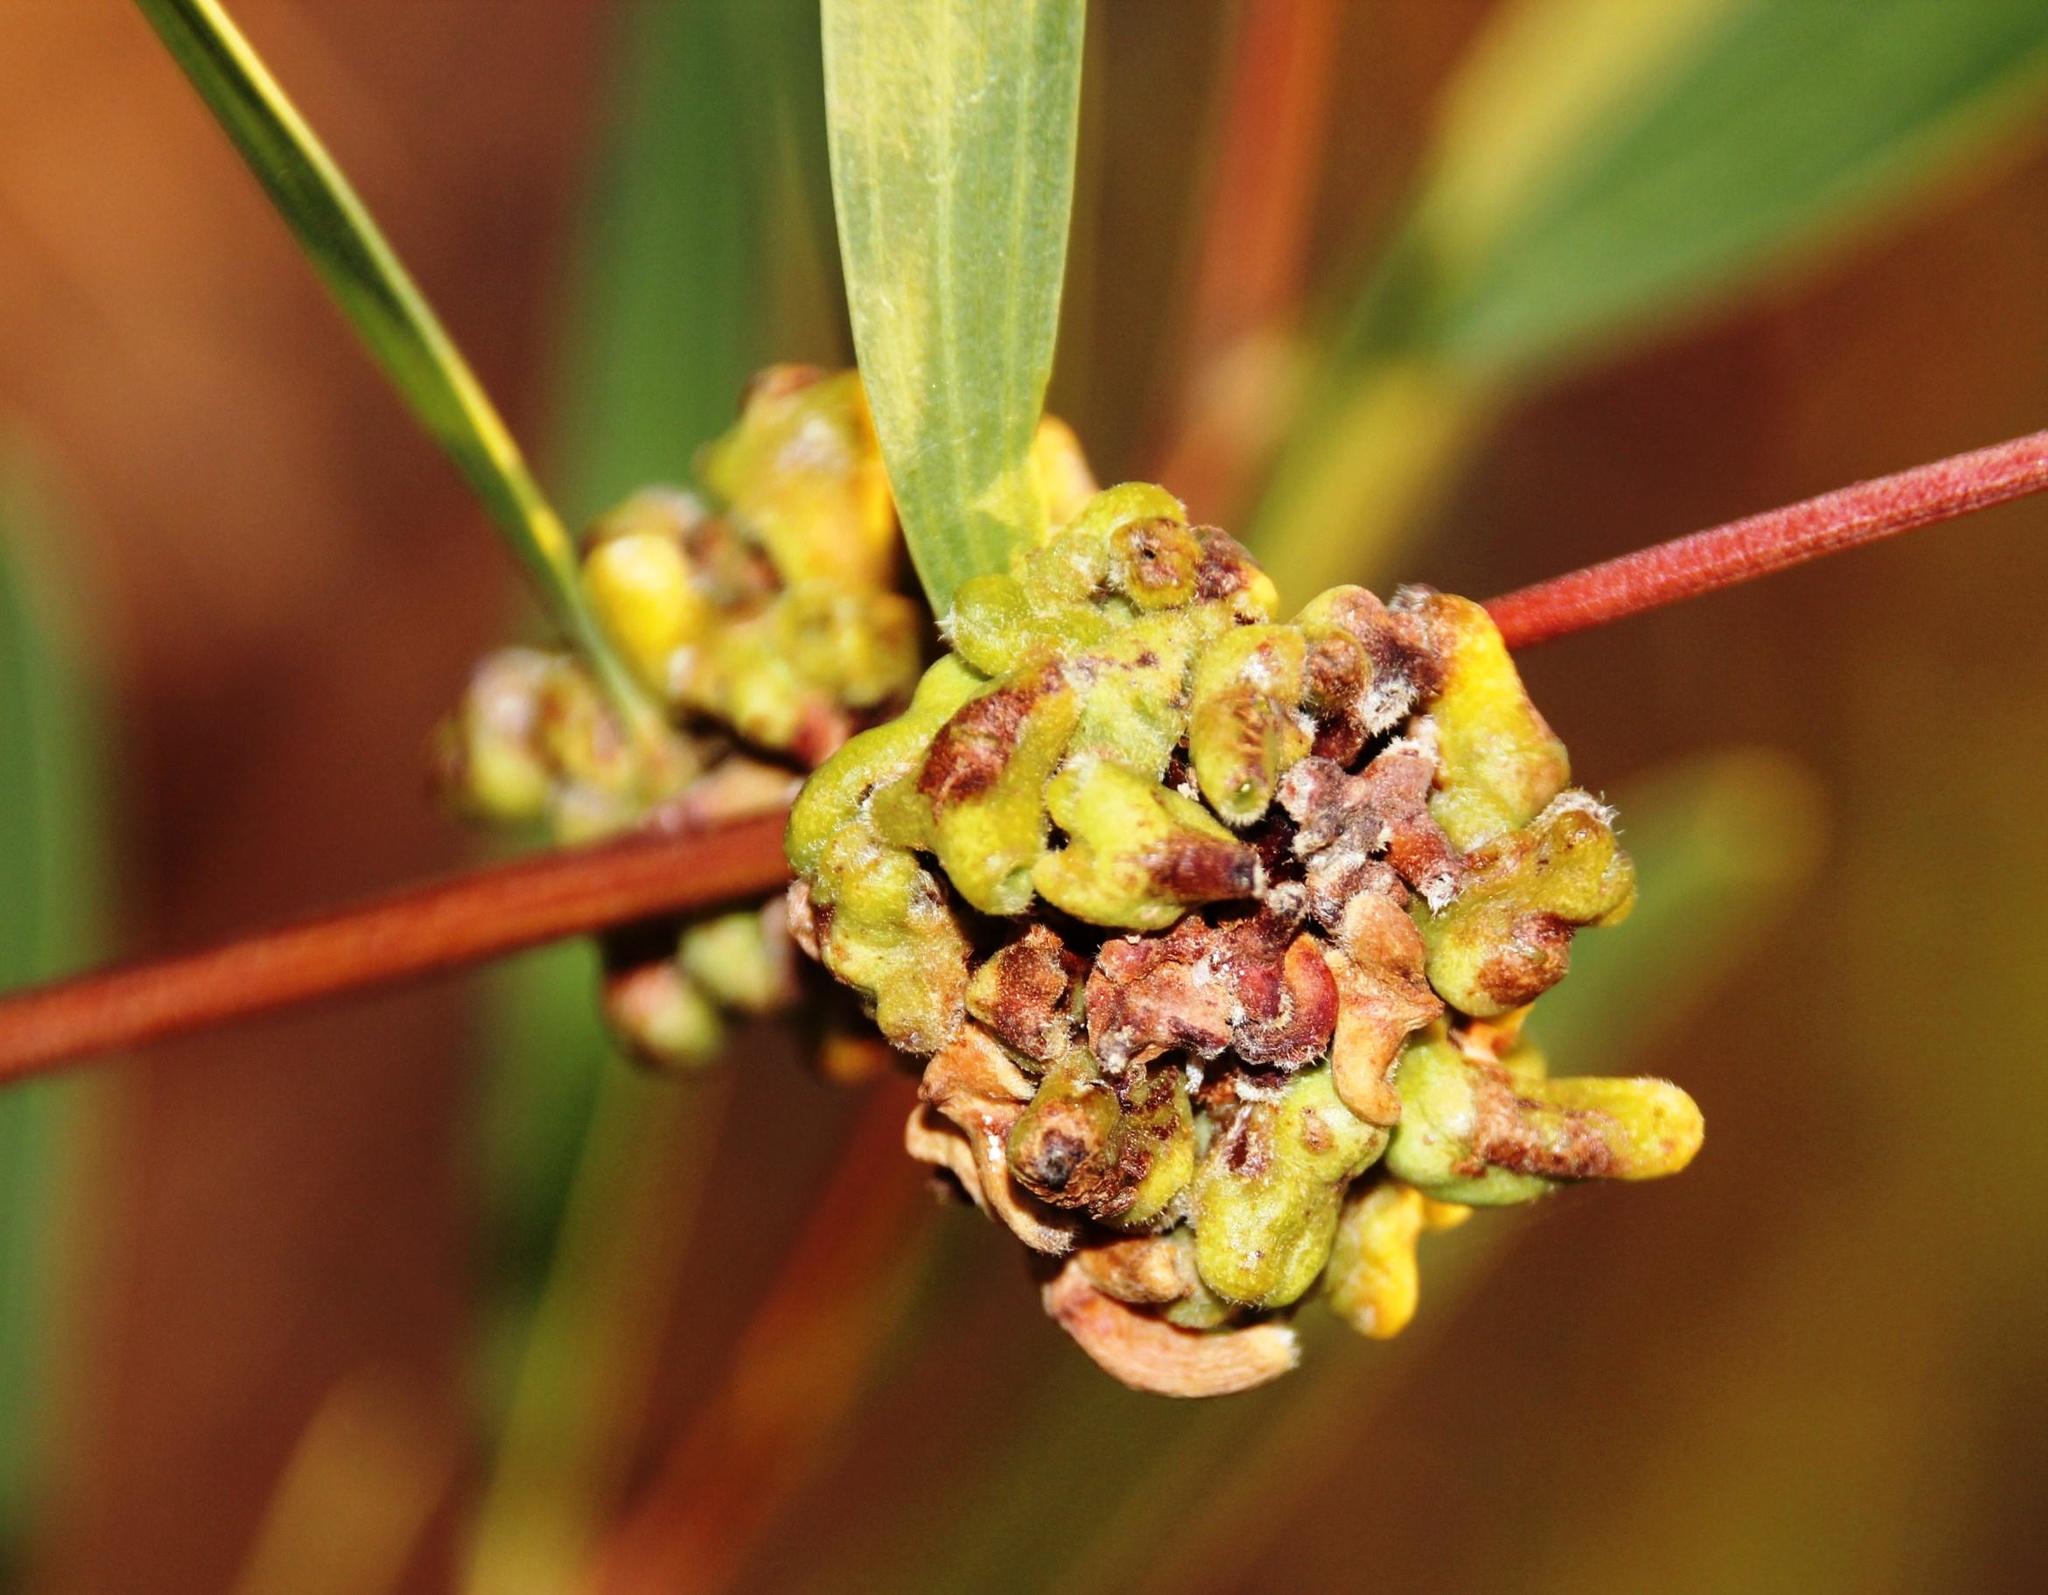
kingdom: Animalia
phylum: Arthropoda
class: Insecta
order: Diptera
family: Cecidomyiidae
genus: Dasineura
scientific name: Dasineura dielsi
